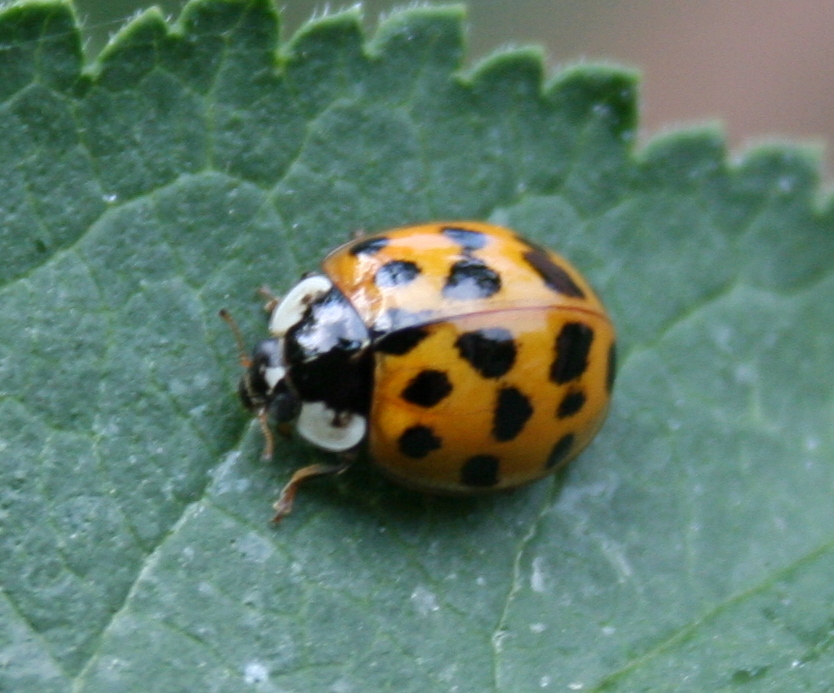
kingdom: Animalia
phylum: Arthropoda
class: Insecta
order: Coleoptera
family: Coccinellidae
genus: Harmonia
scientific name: Harmonia axyridis
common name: Harlequin ladybird
